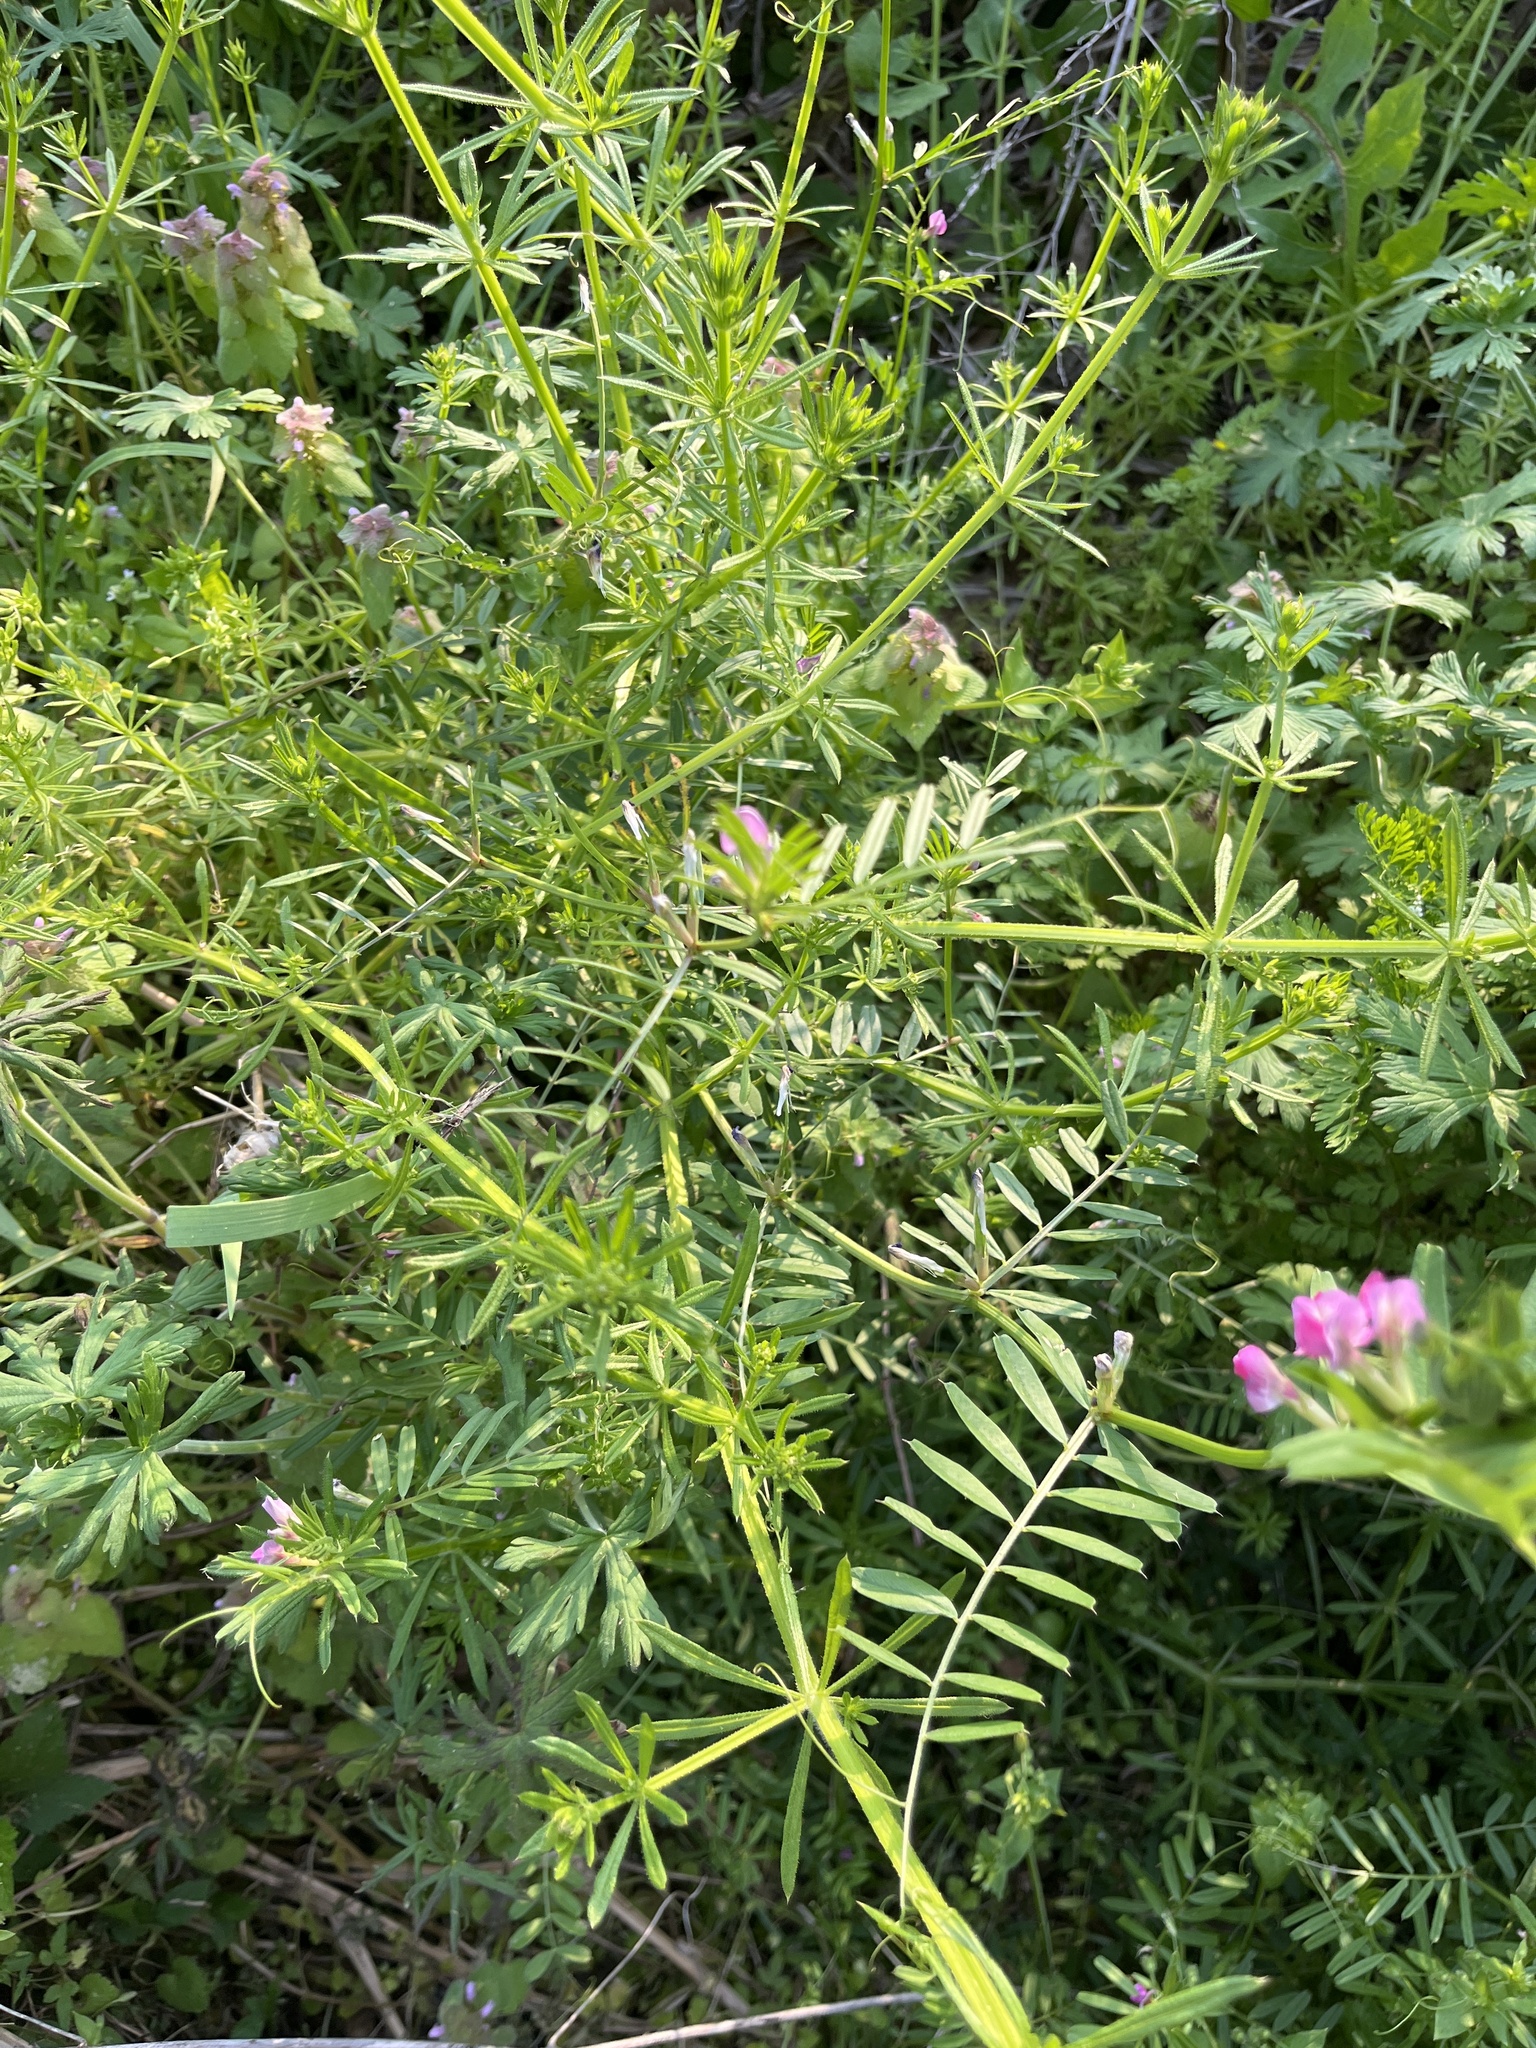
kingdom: Plantae
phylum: Tracheophyta
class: Magnoliopsida
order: Fabales
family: Fabaceae
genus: Vicia
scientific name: Vicia sativa
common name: Garden vetch
